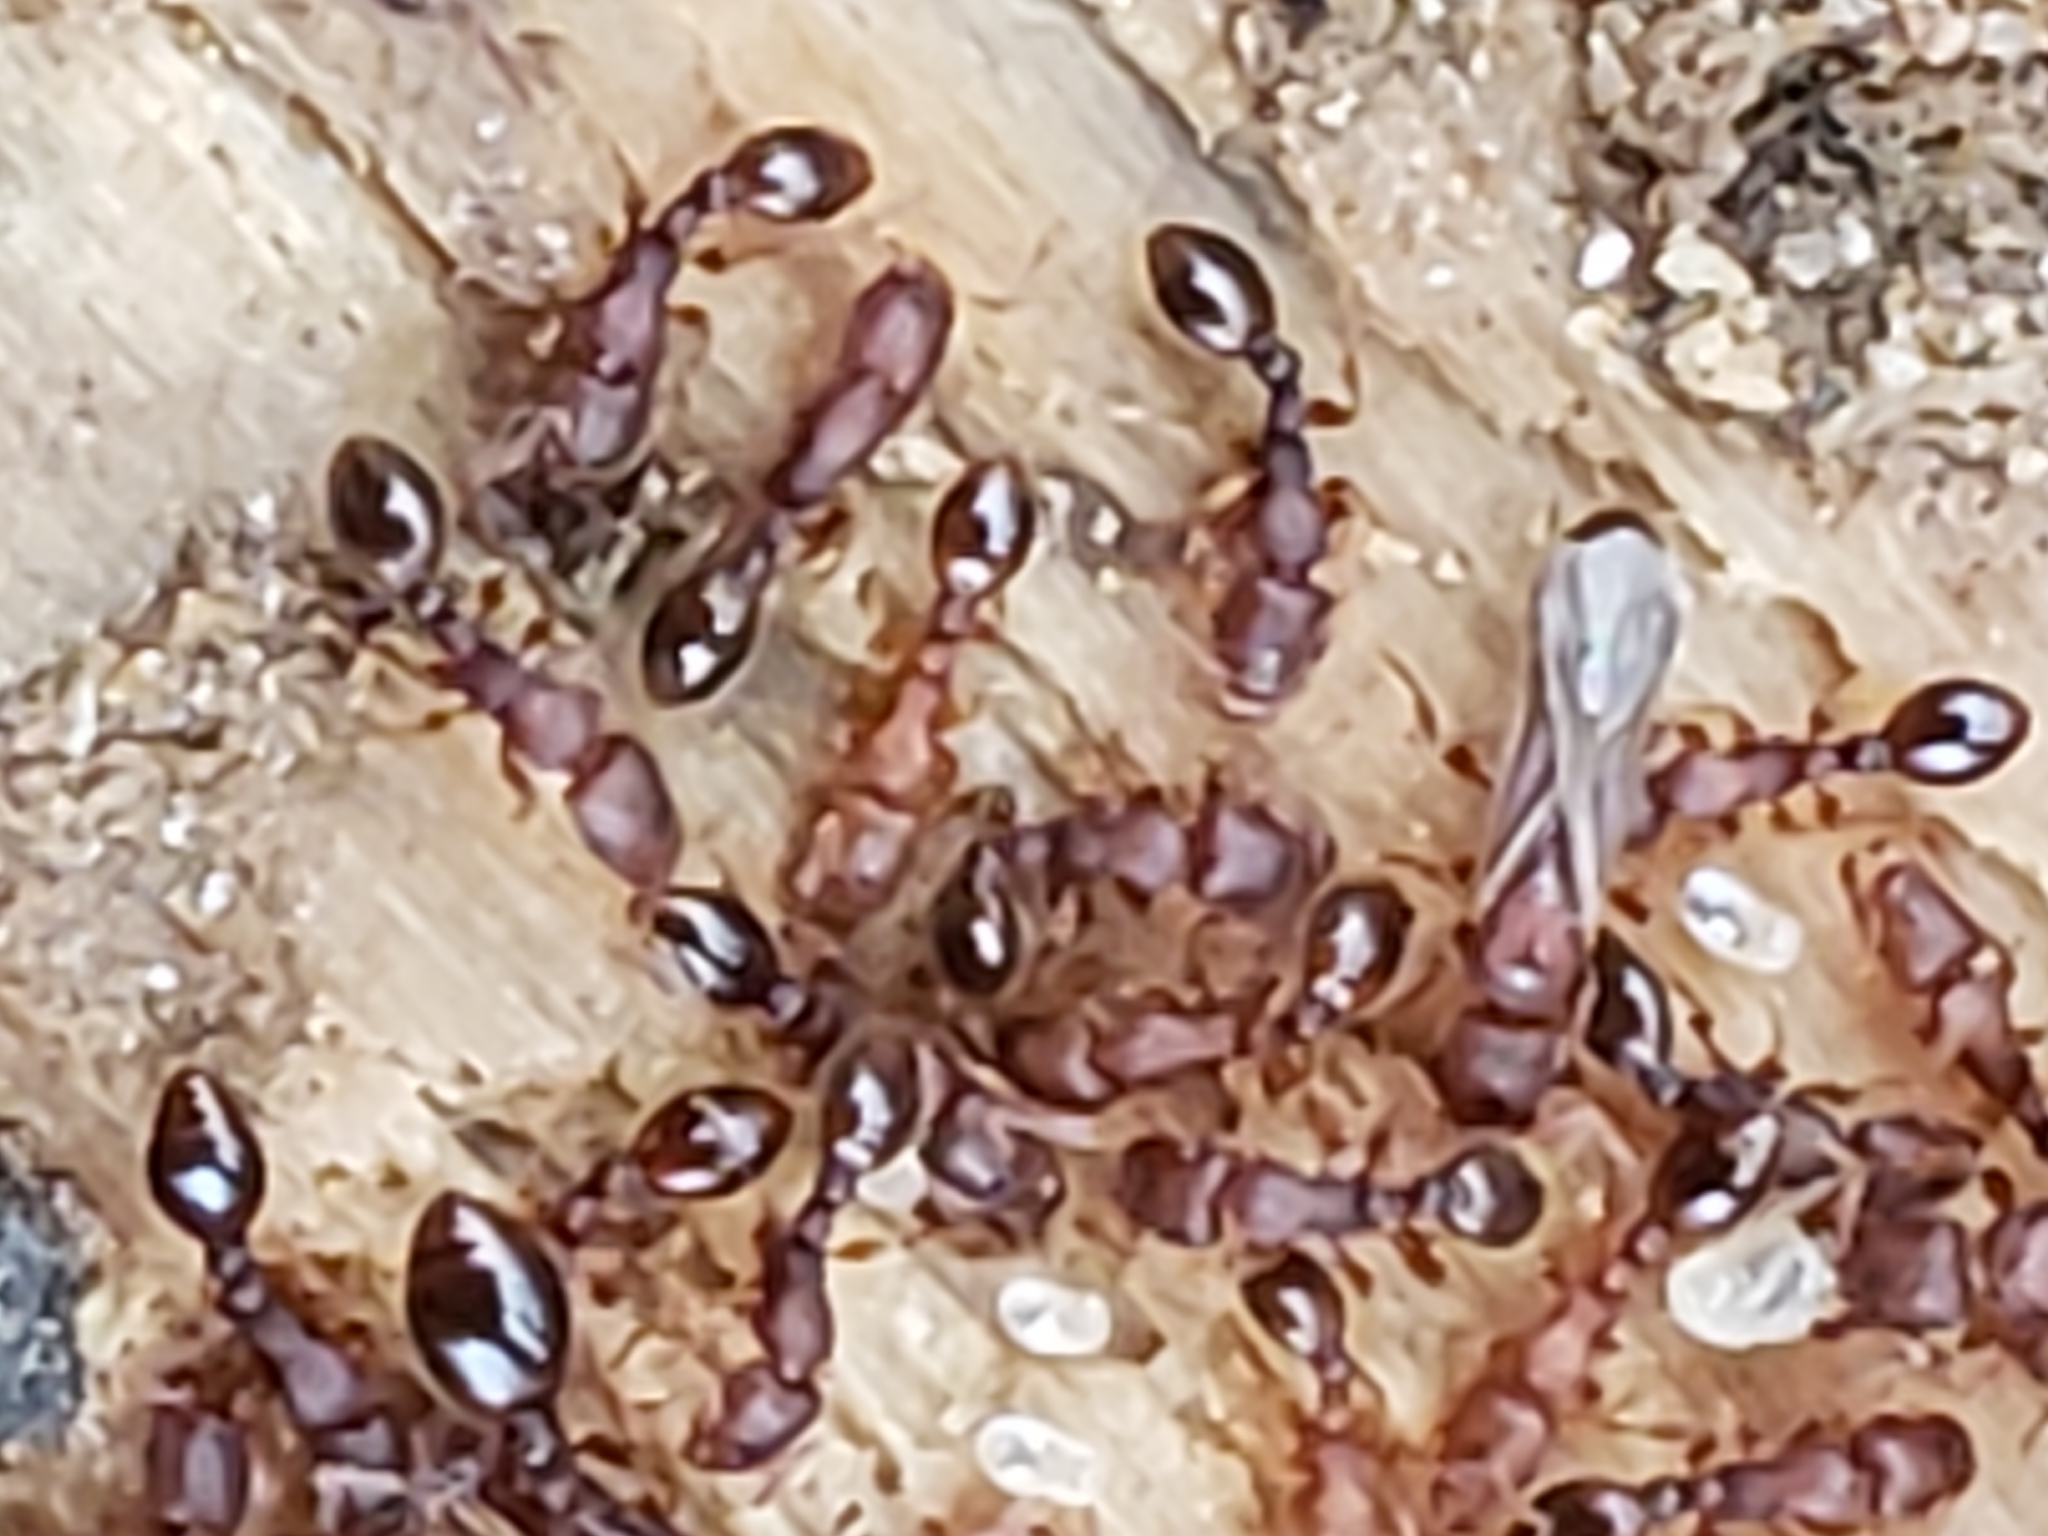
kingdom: Animalia
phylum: Arthropoda
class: Insecta
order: Hymenoptera
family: Formicidae
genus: Vollenhovia
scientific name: Vollenhovia emeryi
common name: Ant
